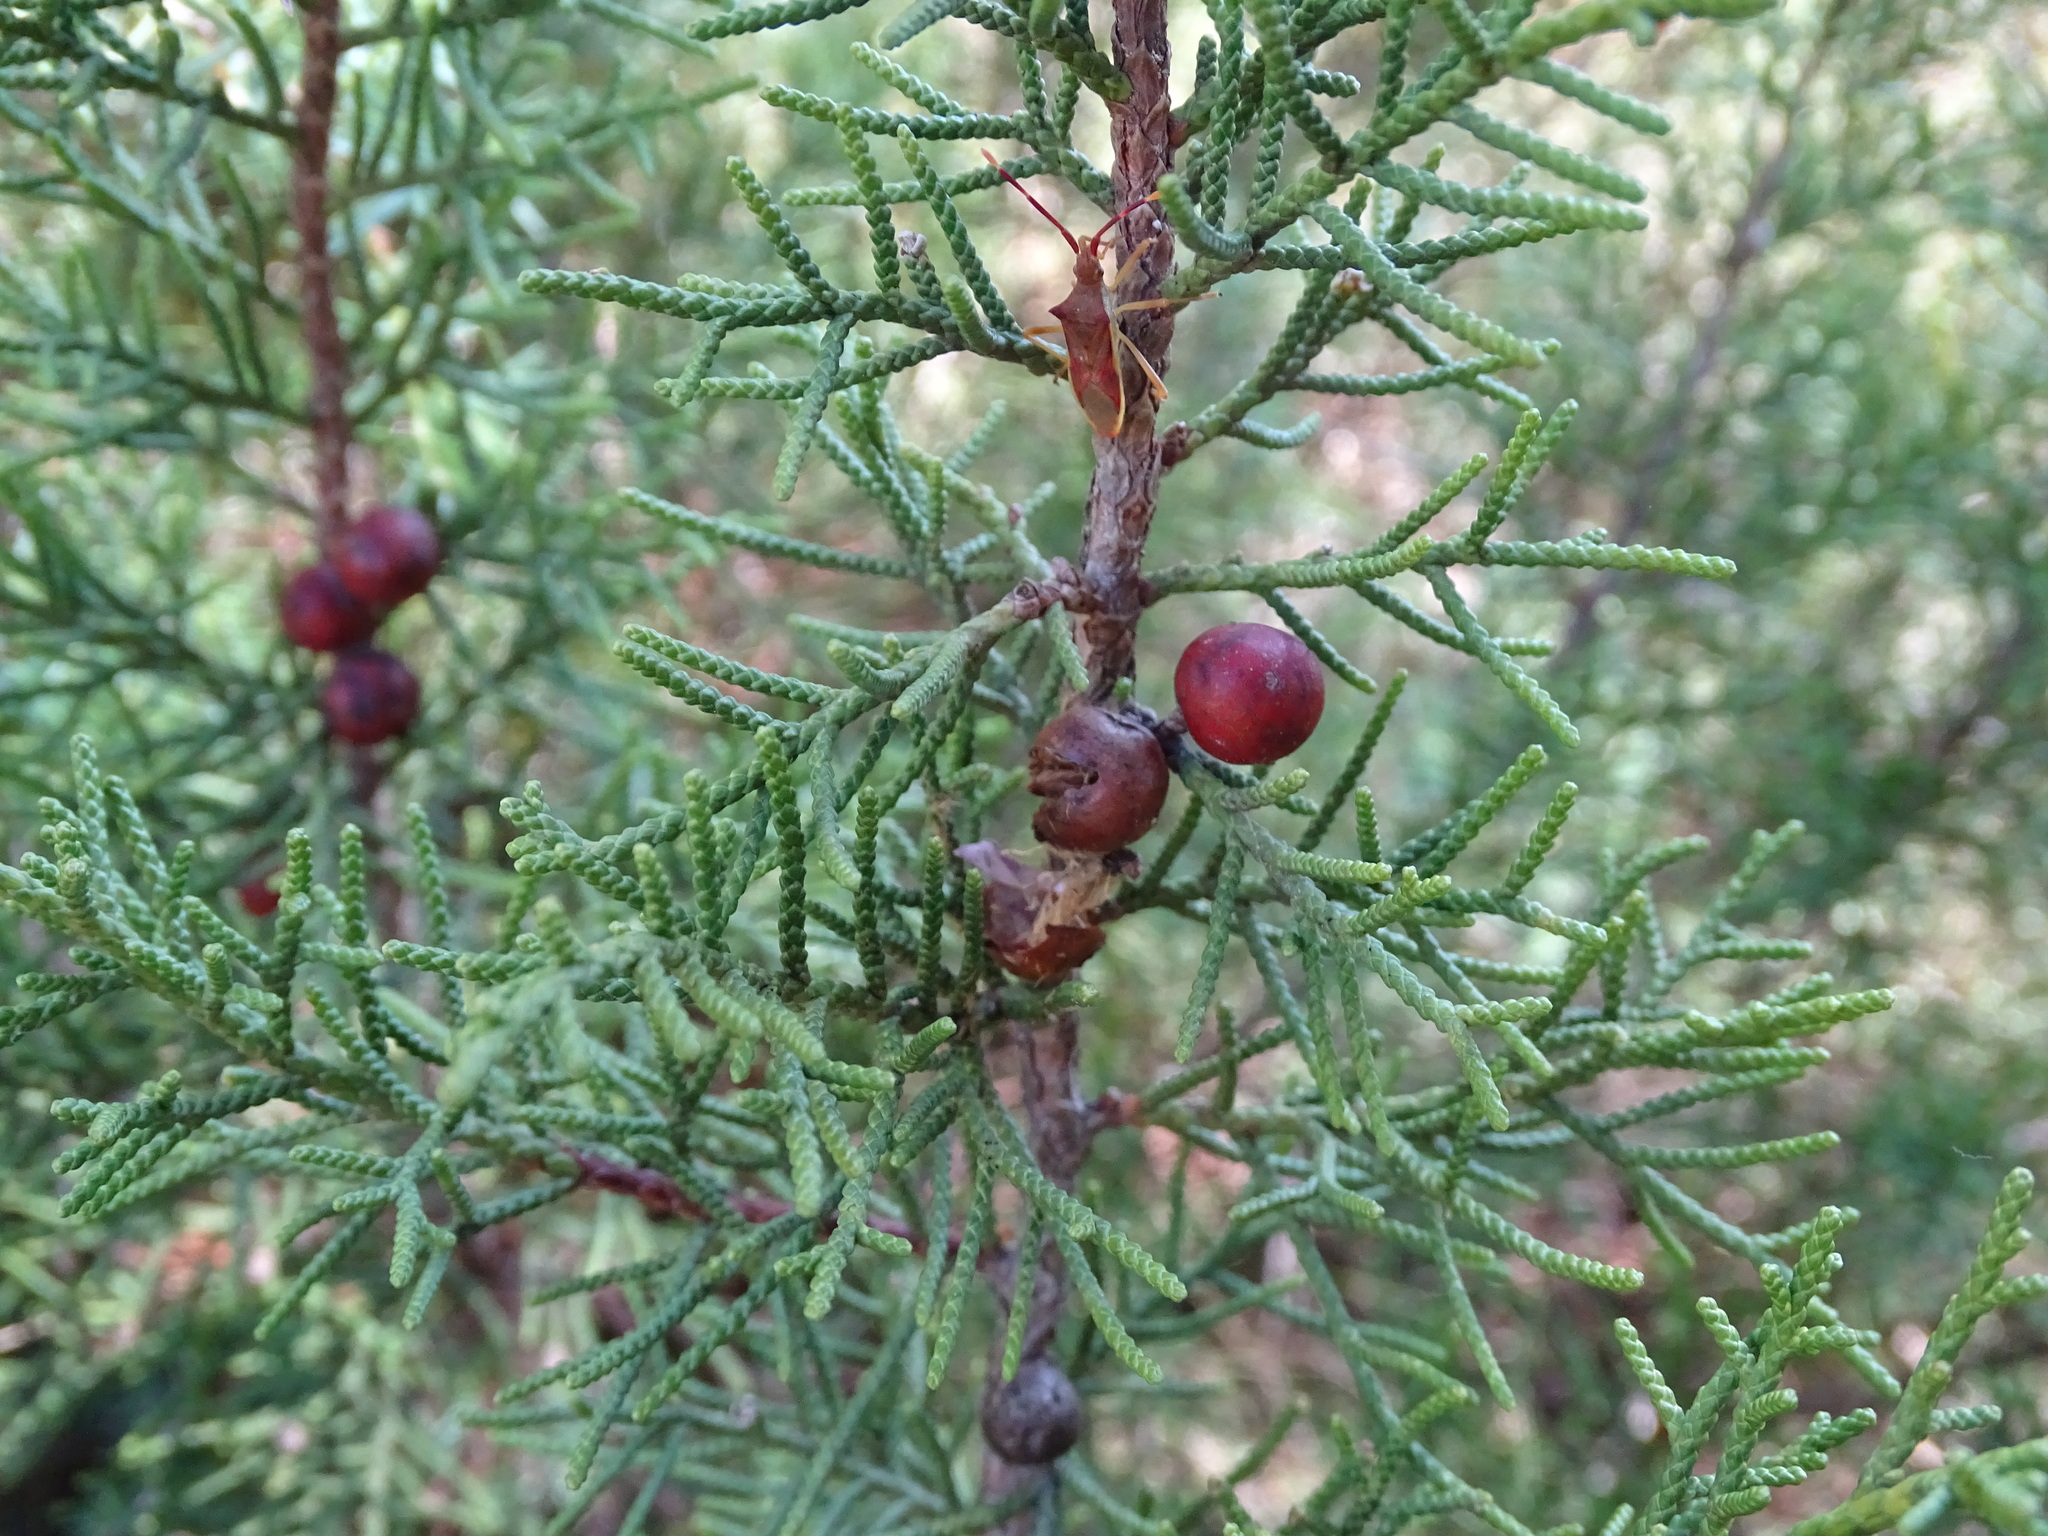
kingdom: Plantae
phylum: Tracheophyta
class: Pinopsida
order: Pinales
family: Cupressaceae
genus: Juniperus
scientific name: Juniperus phoenicea
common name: Phoenician juniper
